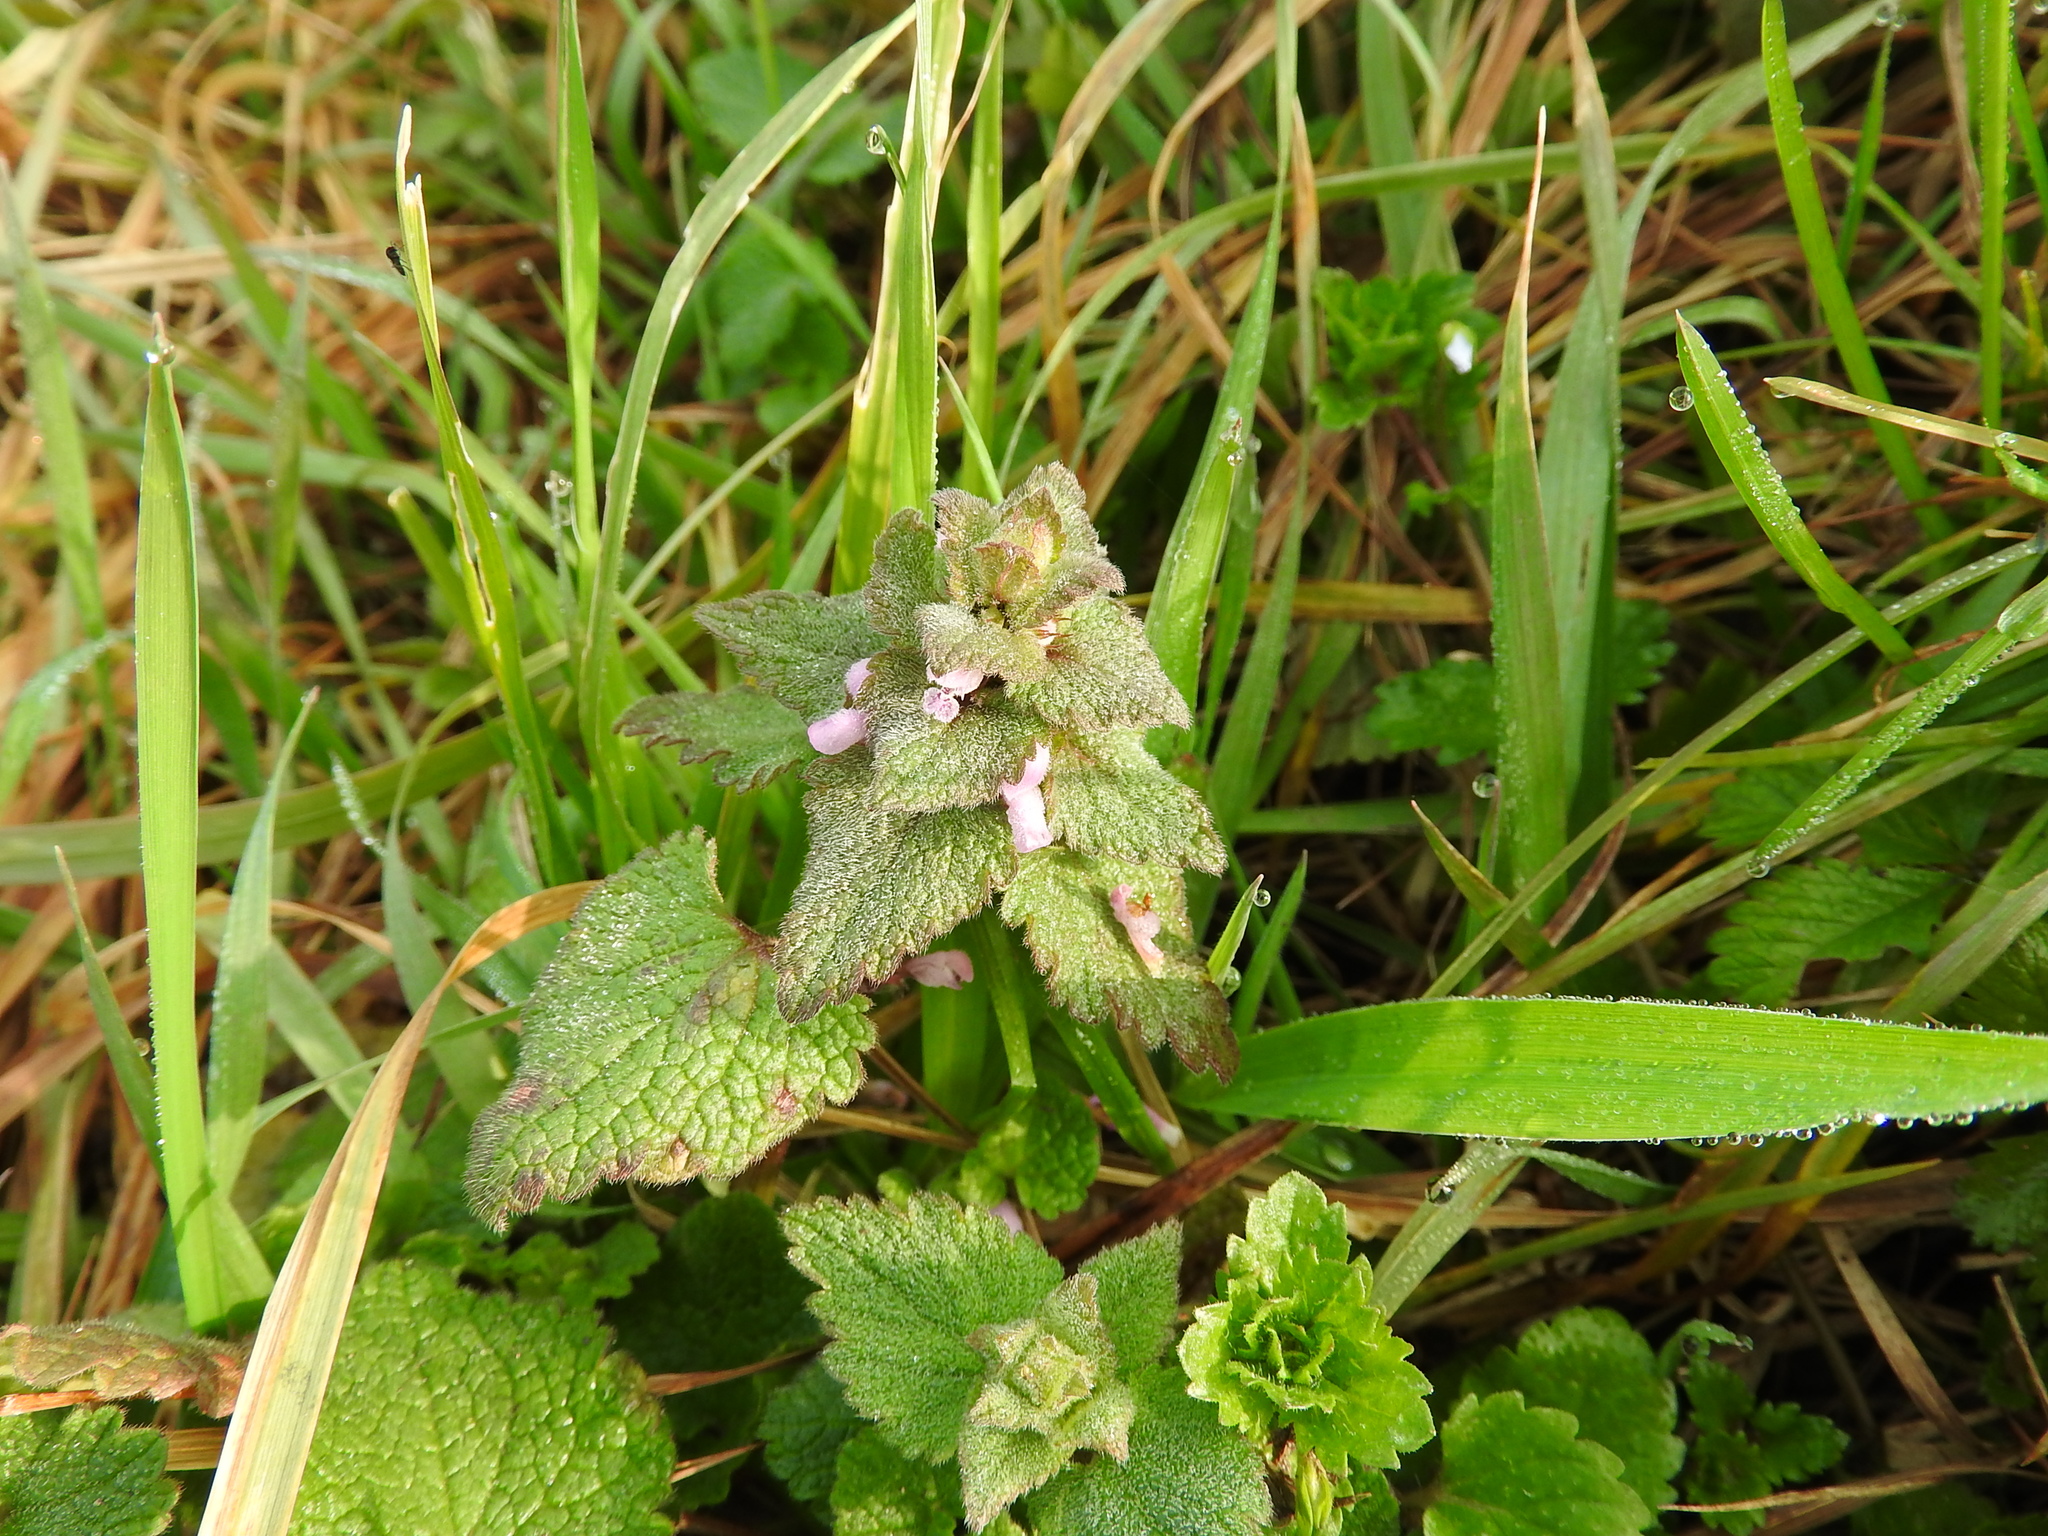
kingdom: Plantae
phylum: Tracheophyta
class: Magnoliopsida
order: Lamiales
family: Lamiaceae
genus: Lamium
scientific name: Lamium purpureum
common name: Red dead-nettle
